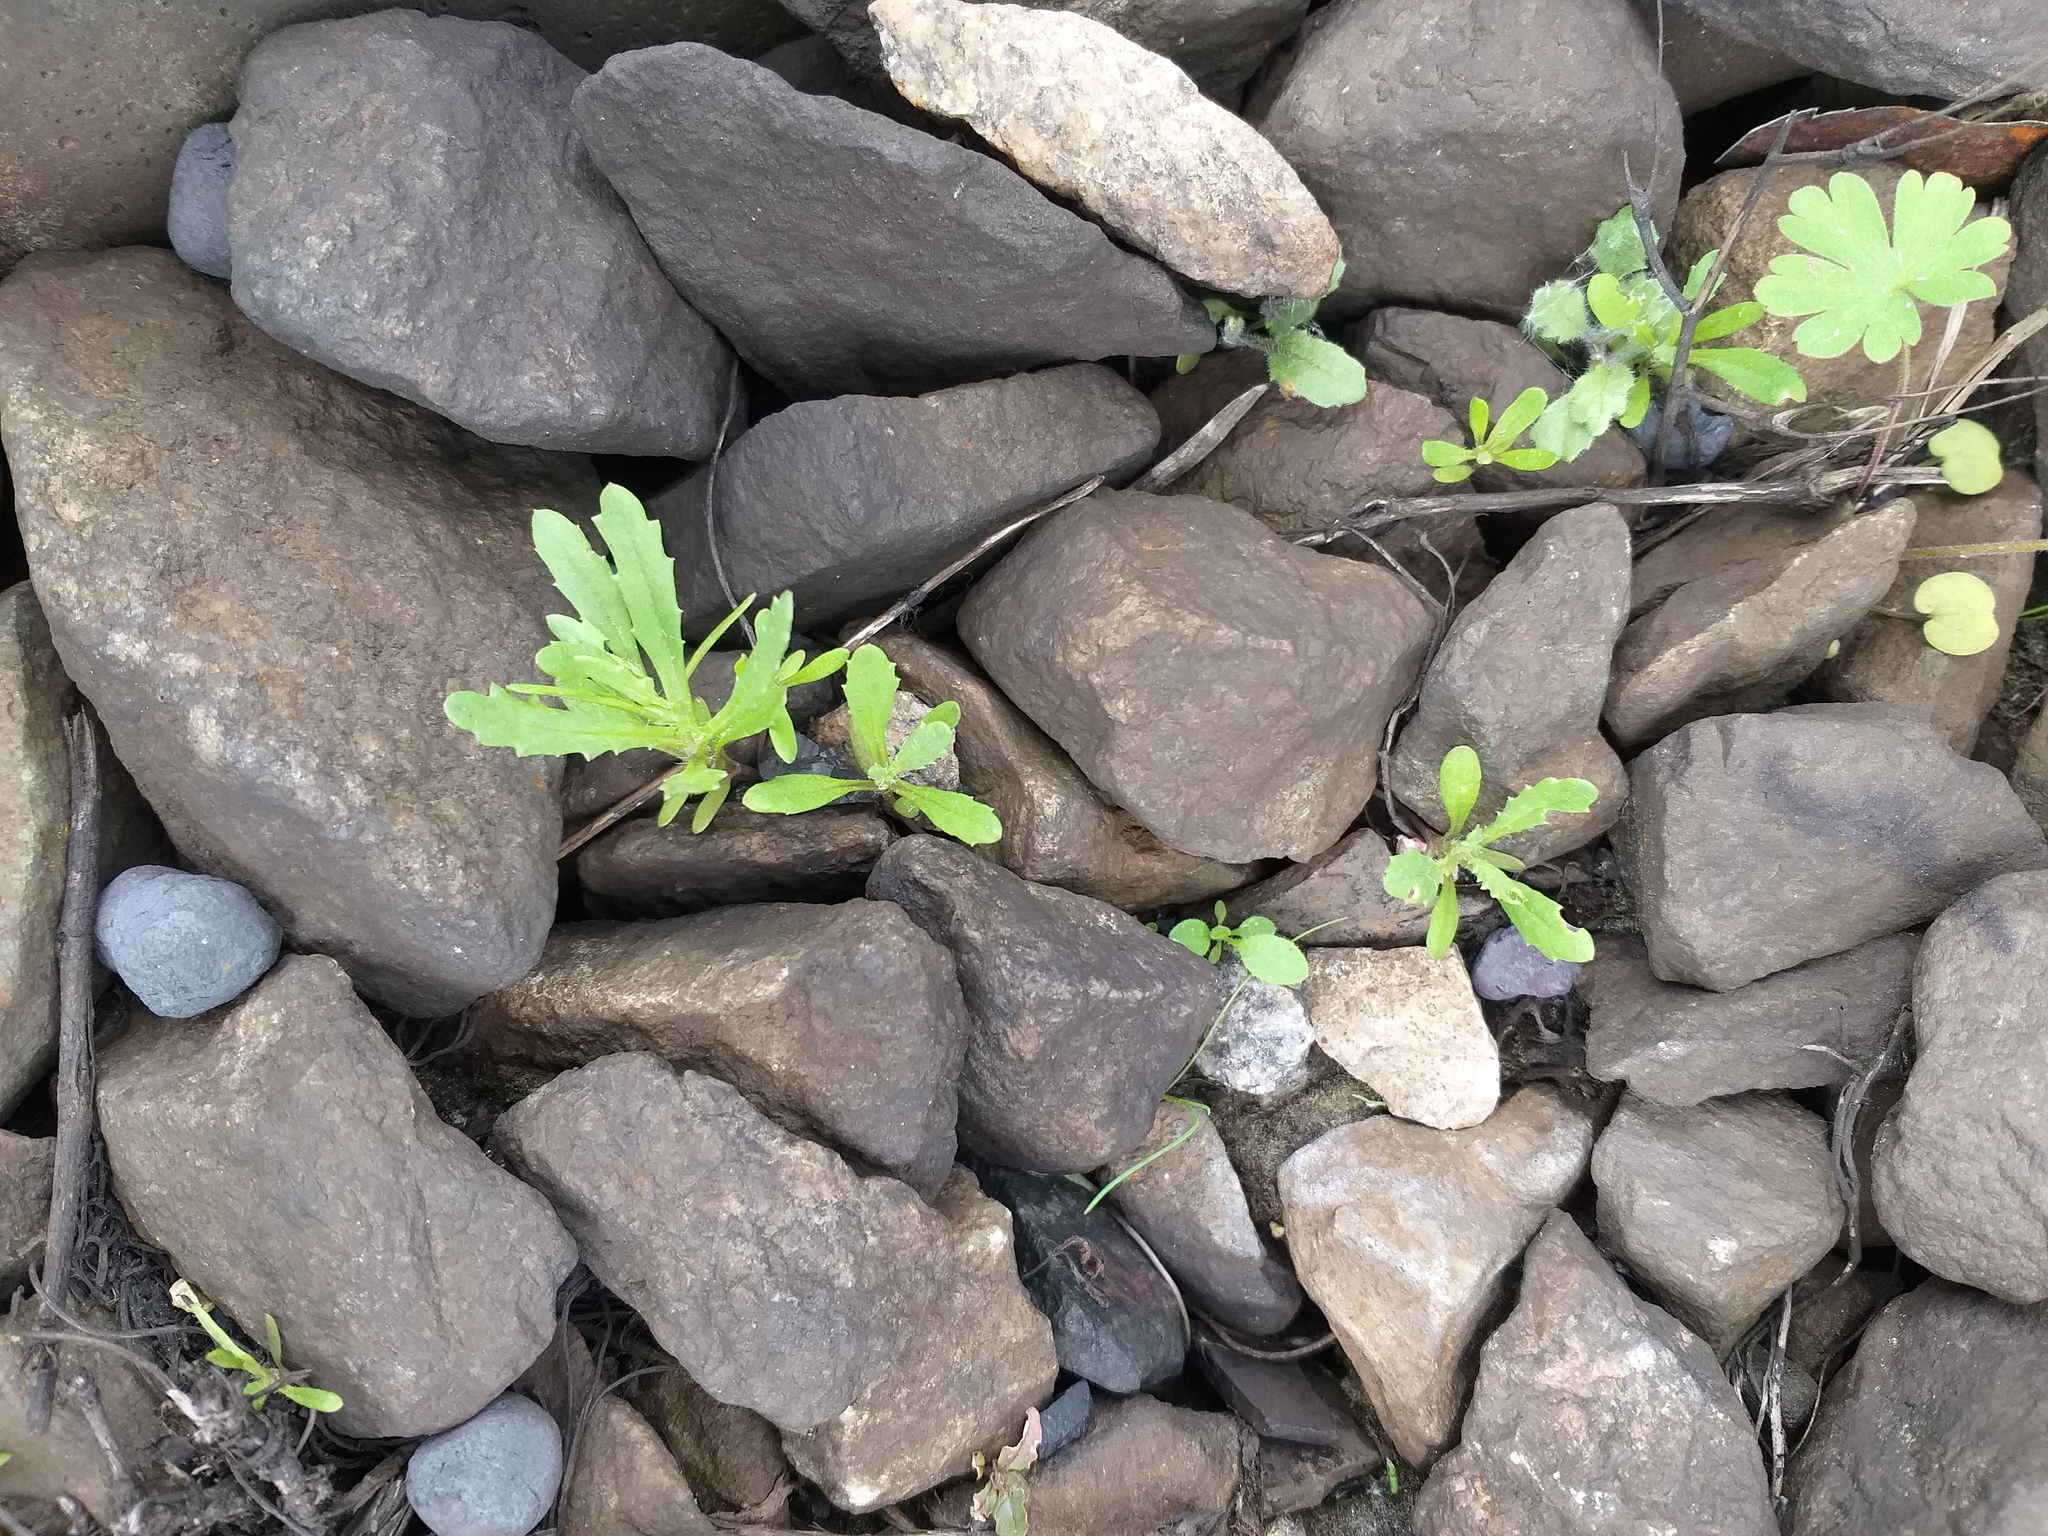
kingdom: Plantae
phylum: Tracheophyta
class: Magnoliopsida
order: Asterales
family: Asteraceae
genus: Senecio
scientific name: Senecio dubitabilis
